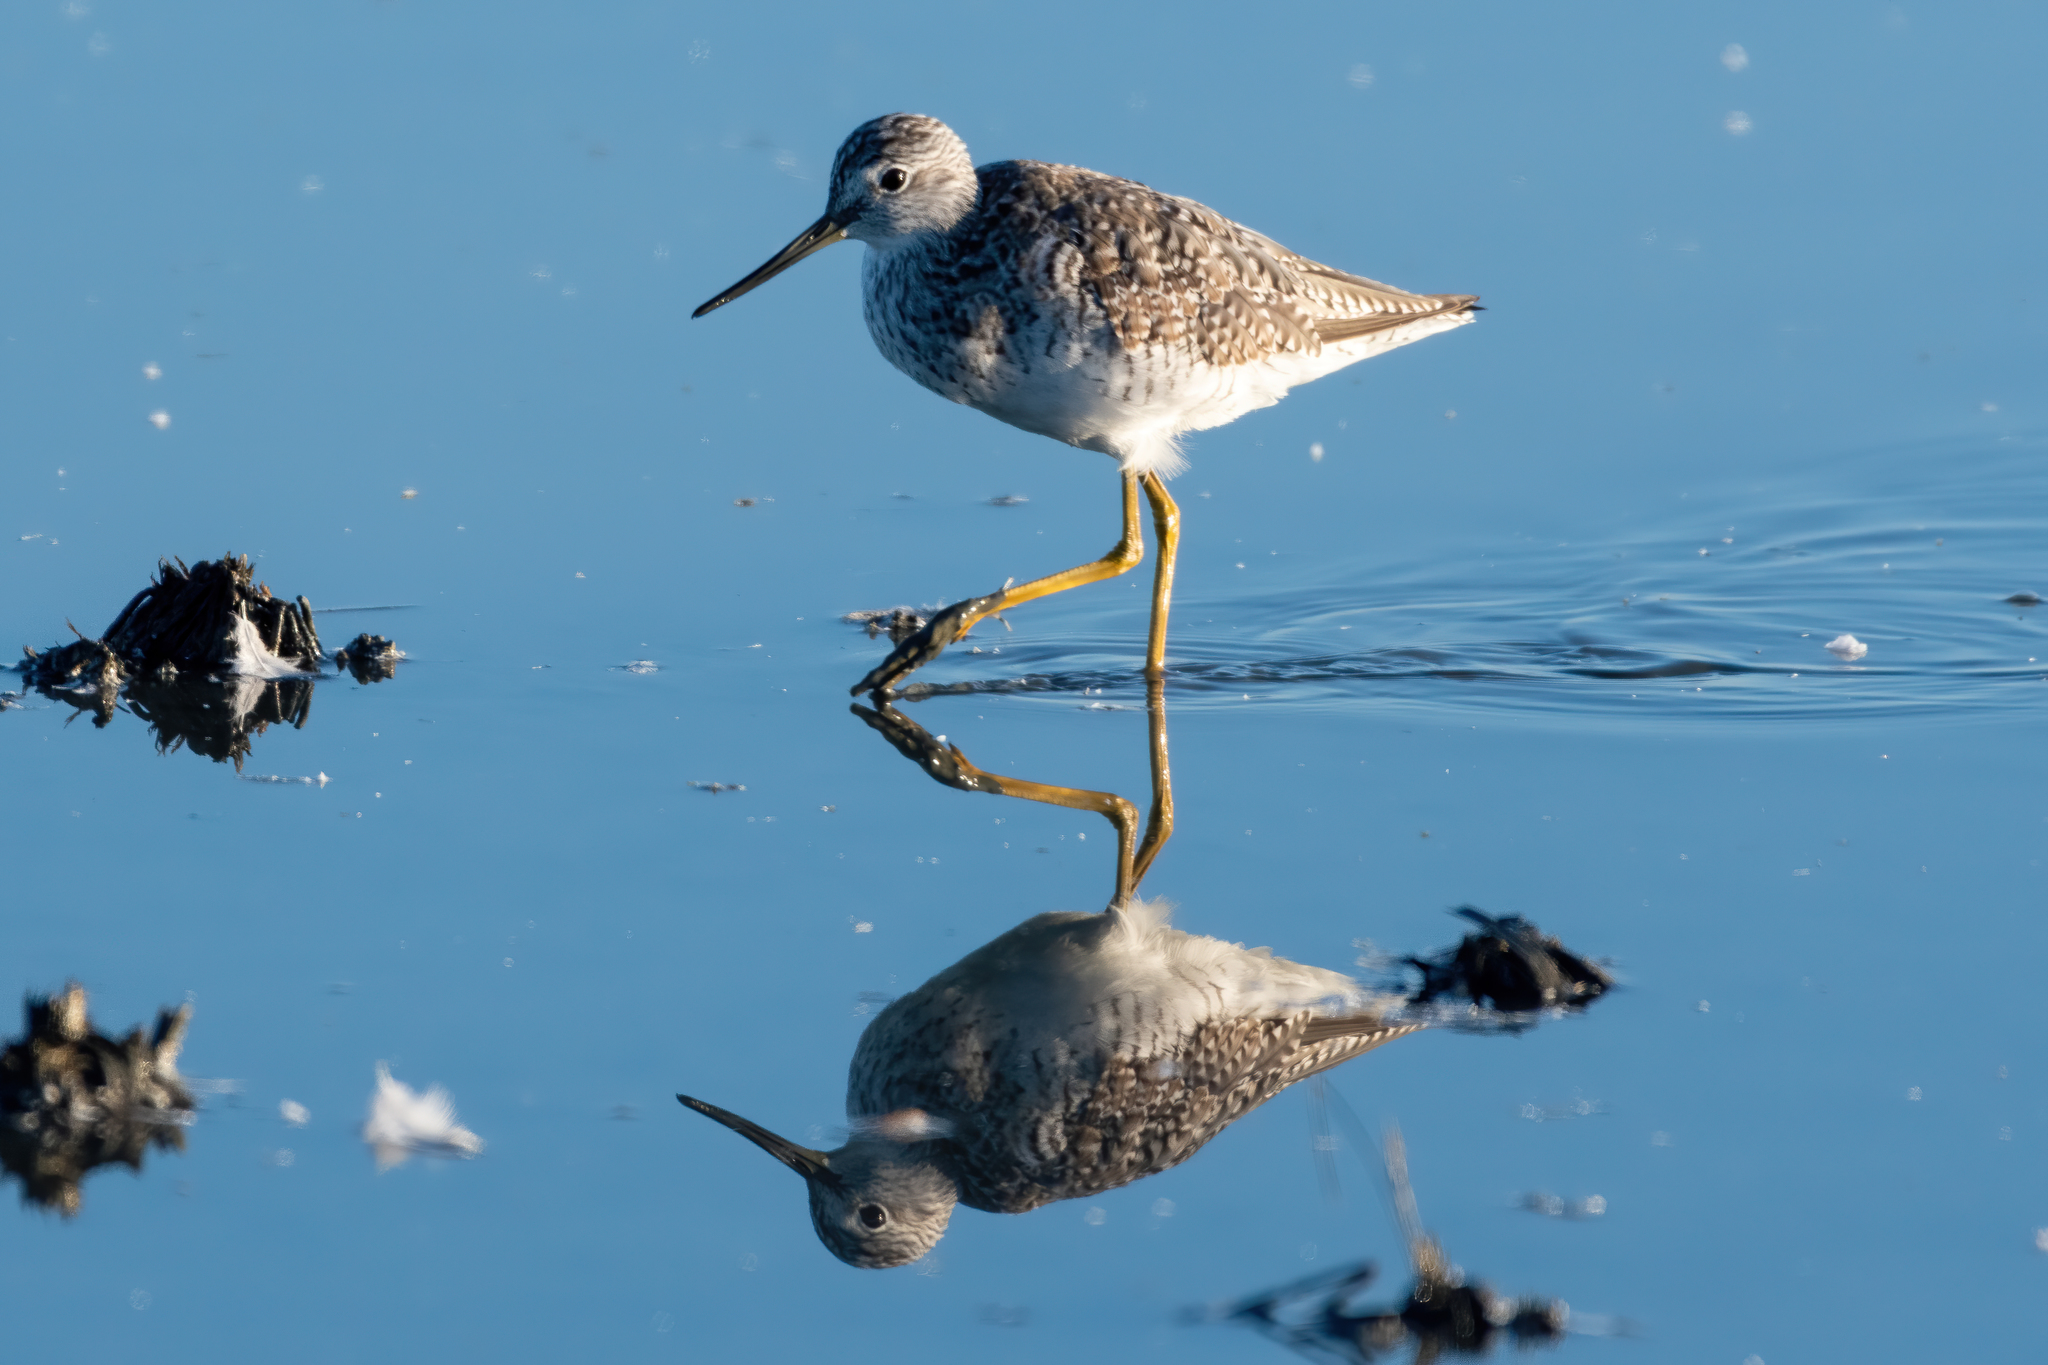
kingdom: Animalia
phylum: Chordata
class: Aves
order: Charadriiformes
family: Scolopacidae
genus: Tringa
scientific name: Tringa melanoleuca
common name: Greater yellowlegs
